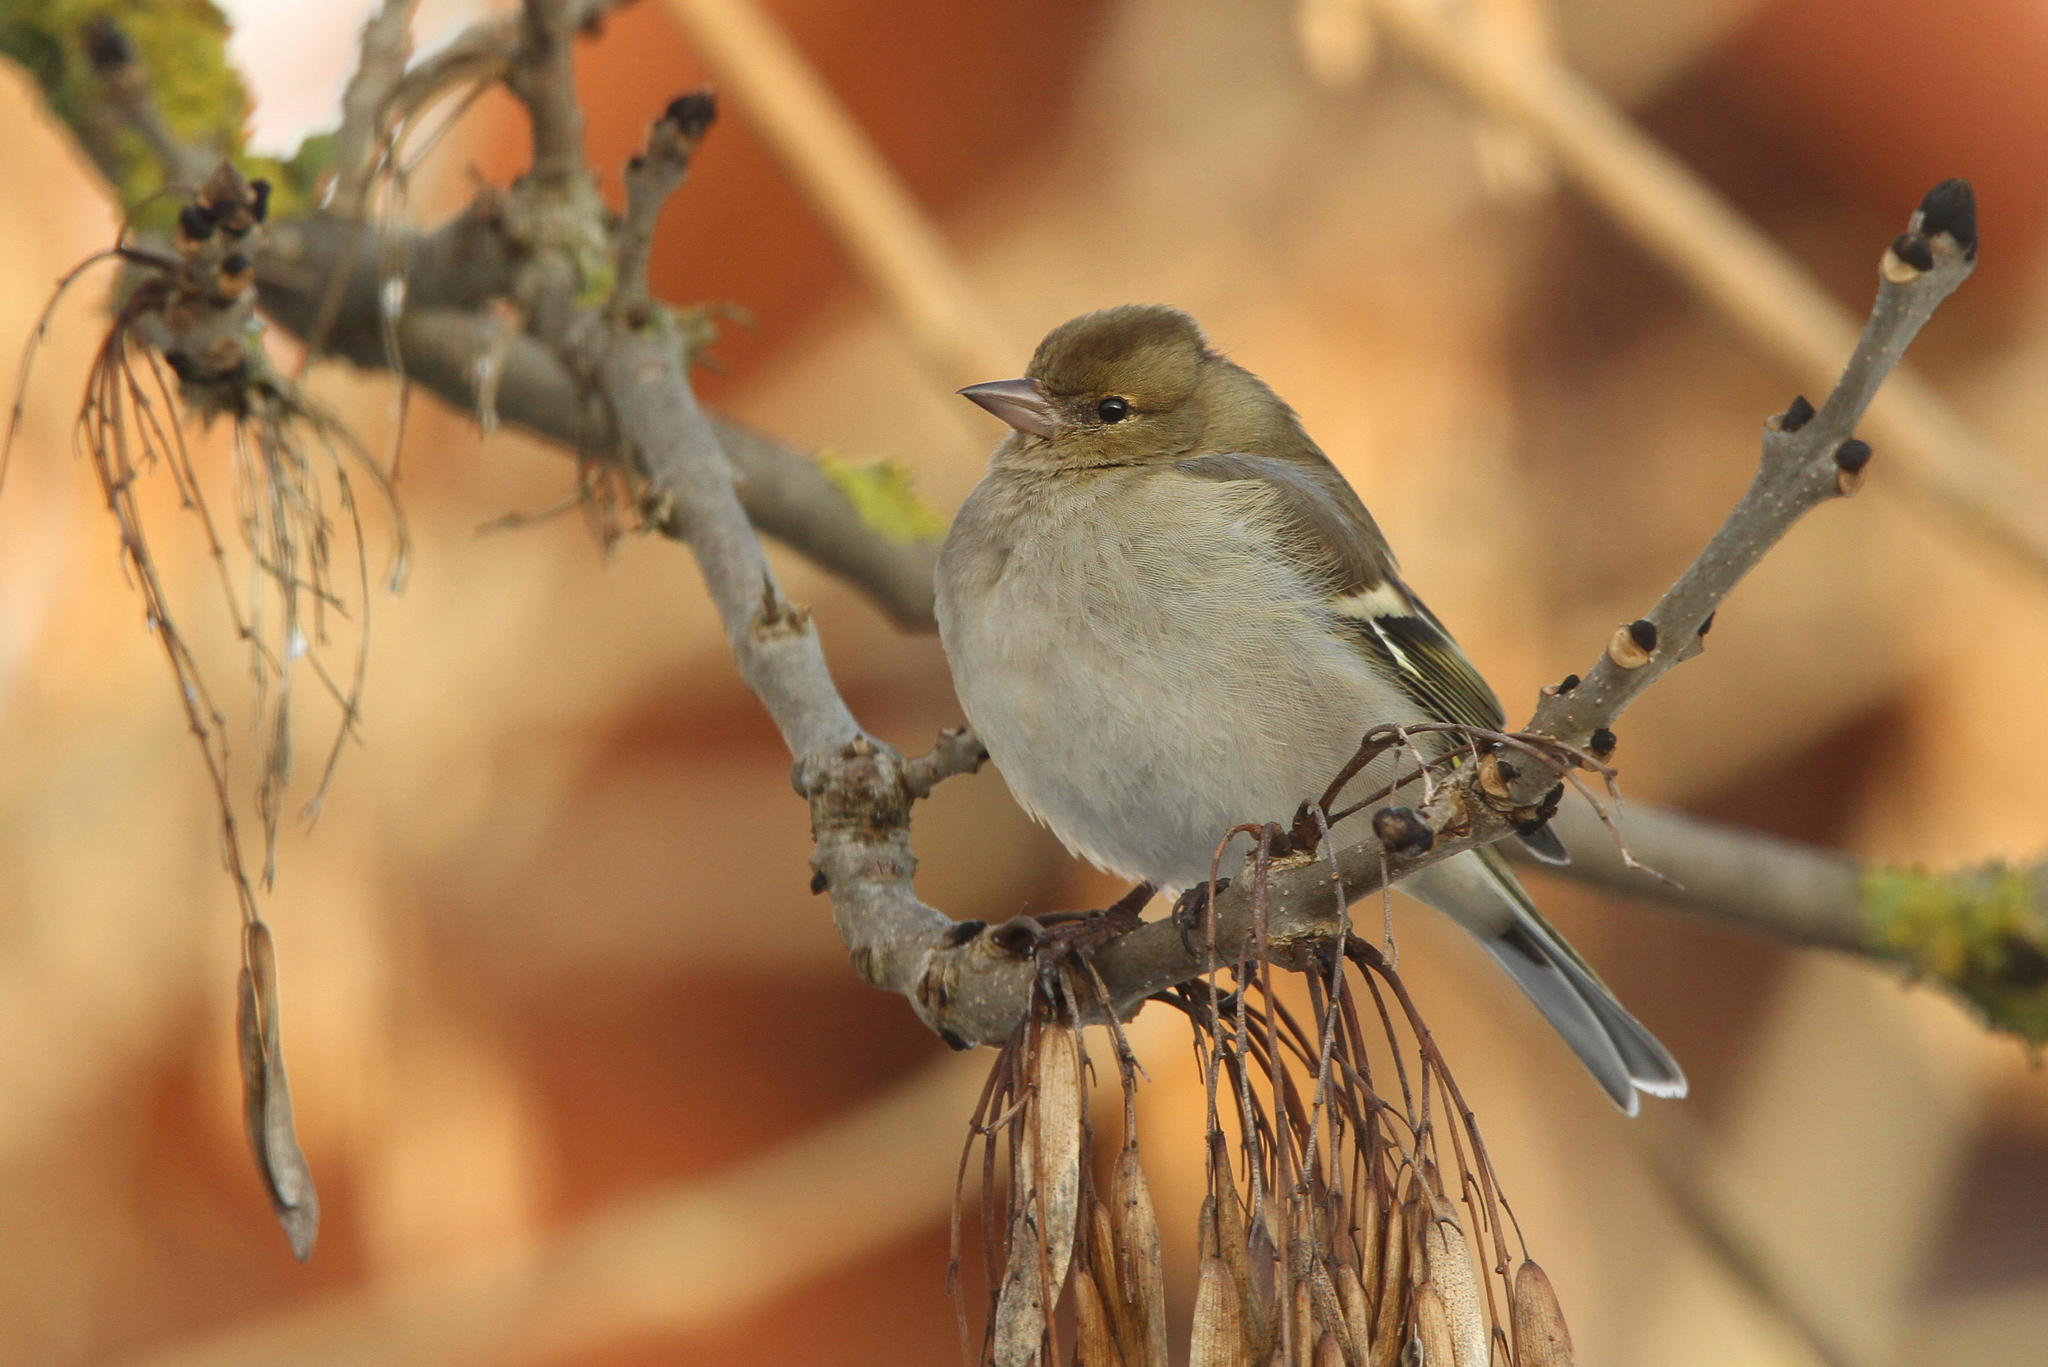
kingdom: Animalia
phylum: Chordata
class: Aves
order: Passeriformes
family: Fringillidae
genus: Fringilla
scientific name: Fringilla coelebs
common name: Common chaffinch
